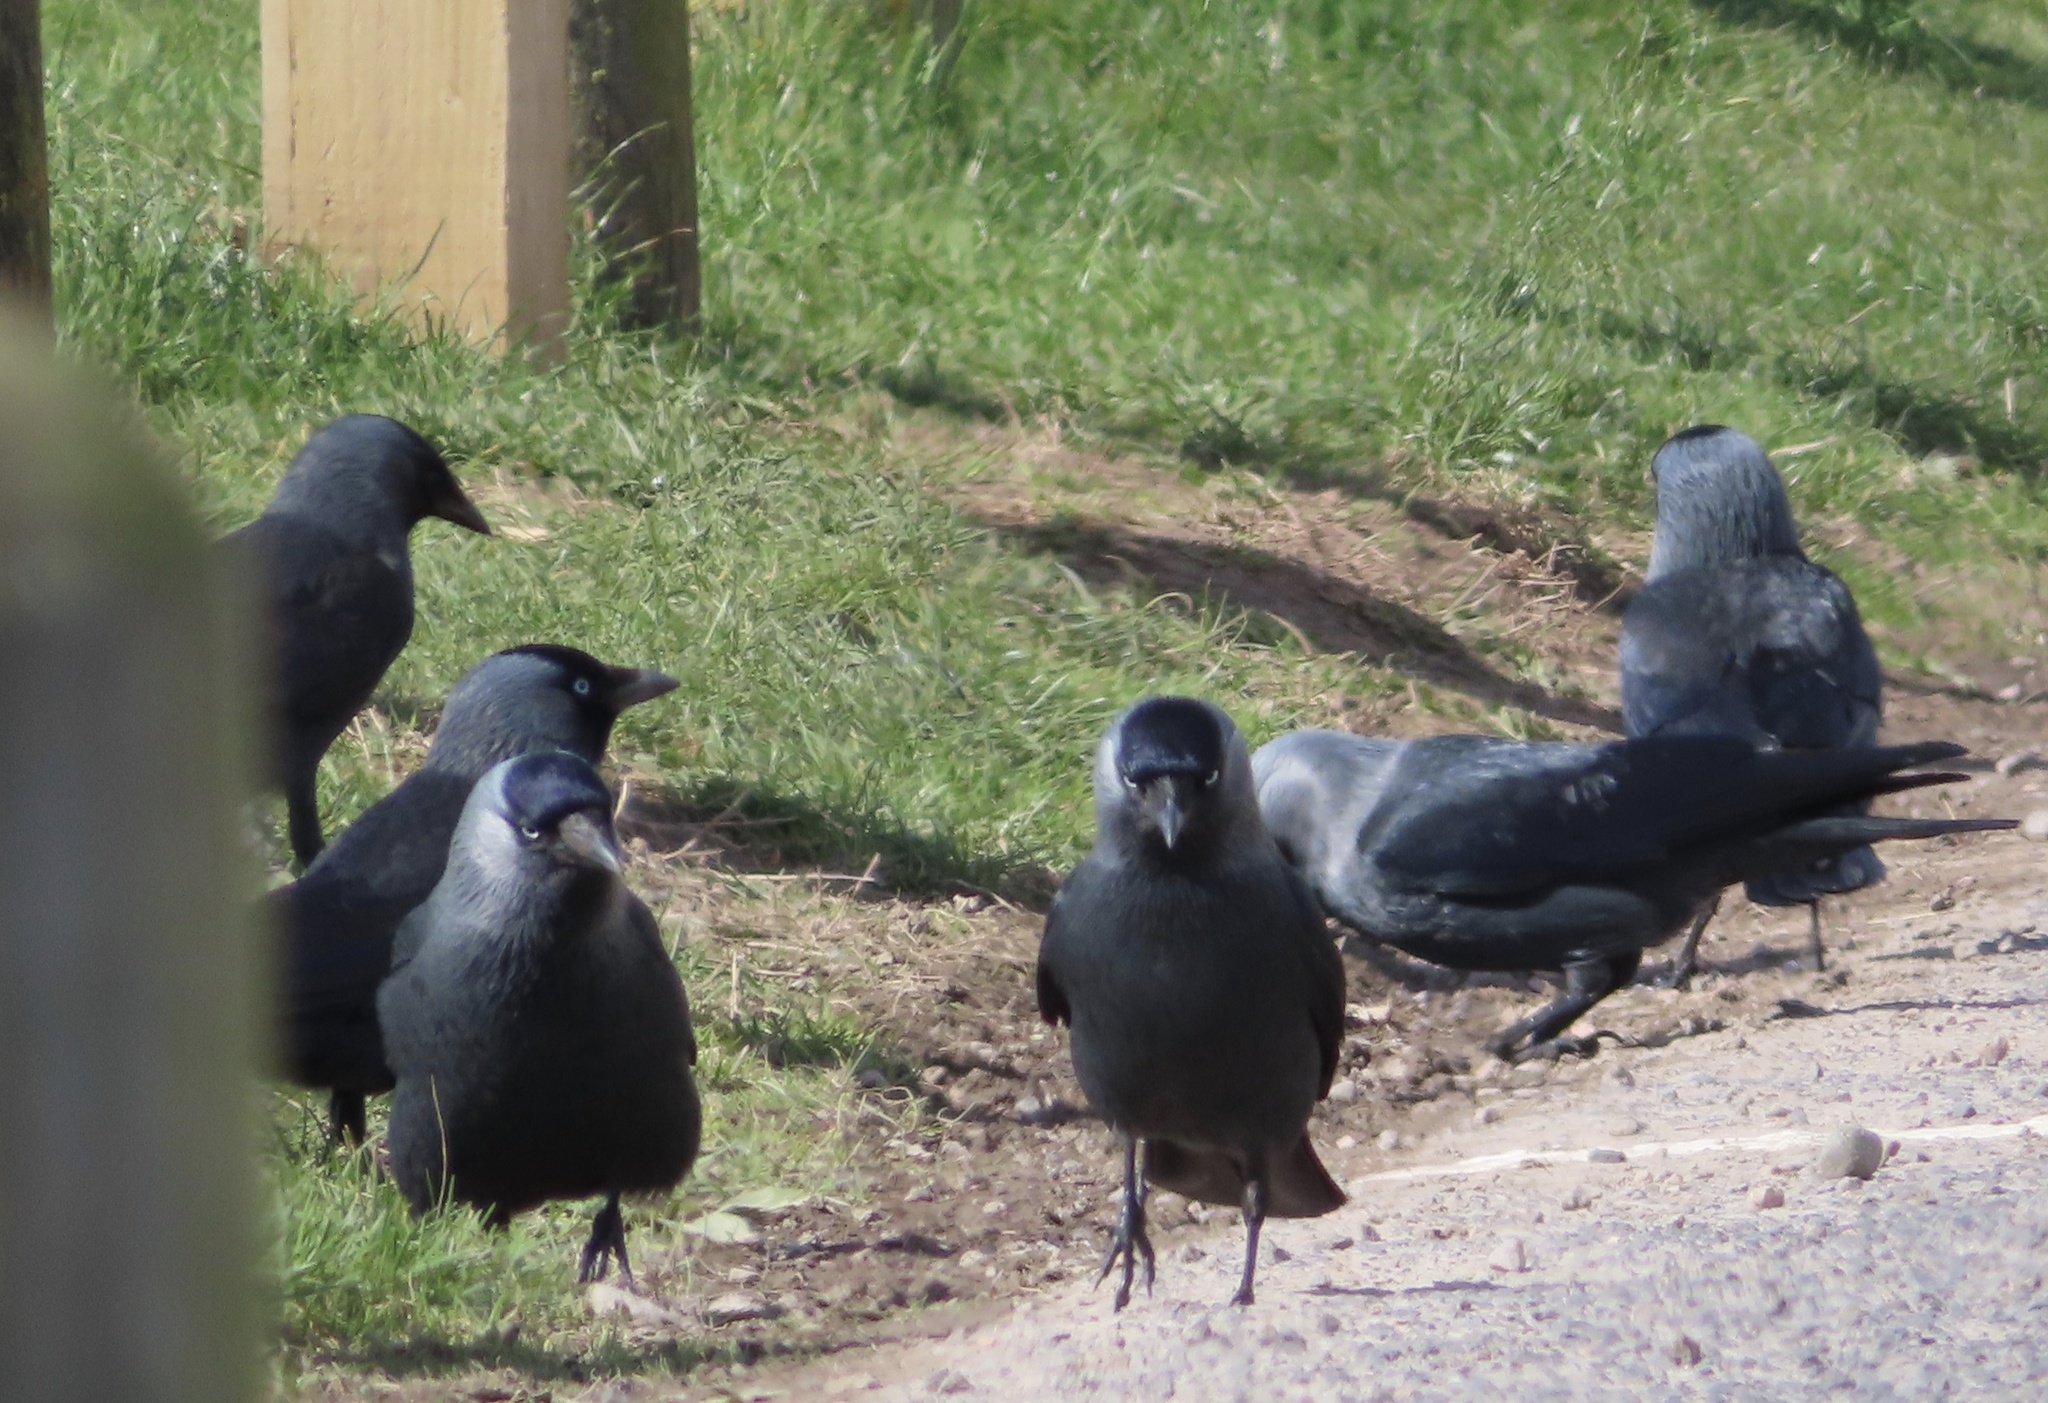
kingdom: Animalia
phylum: Chordata
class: Aves
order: Passeriformes
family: Corvidae
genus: Coloeus
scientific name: Coloeus monedula
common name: Western jackdaw
